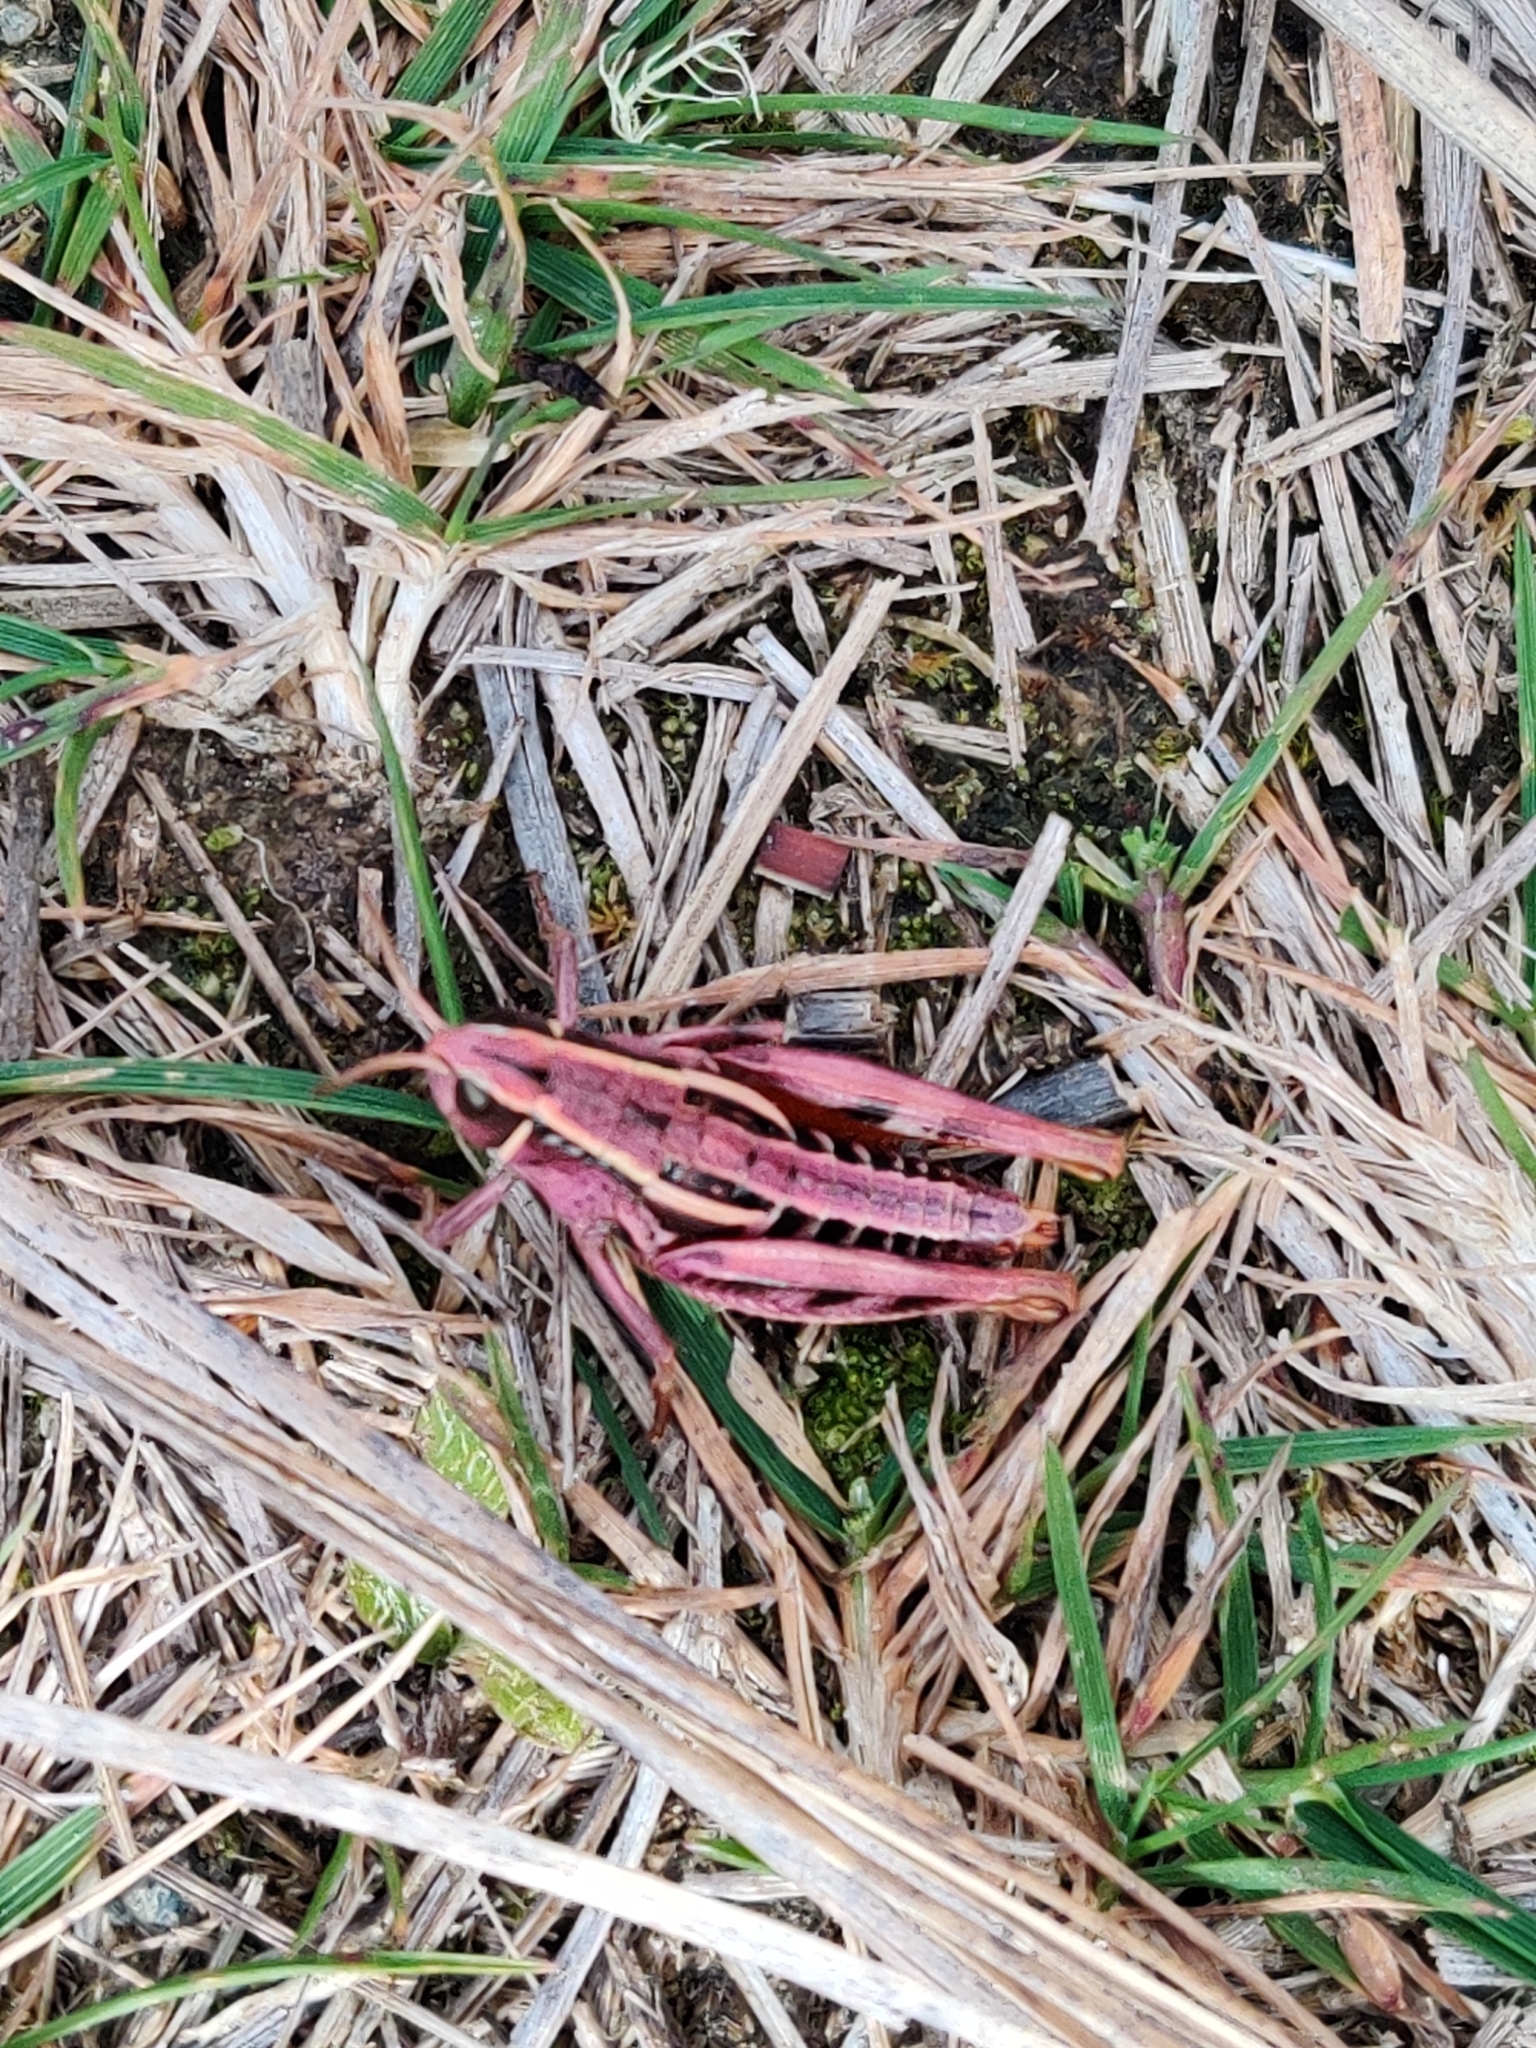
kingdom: Animalia
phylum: Arthropoda
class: Insecta
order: Orthoptera
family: Acrididae
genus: Sigaus
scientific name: Sigaus australis
